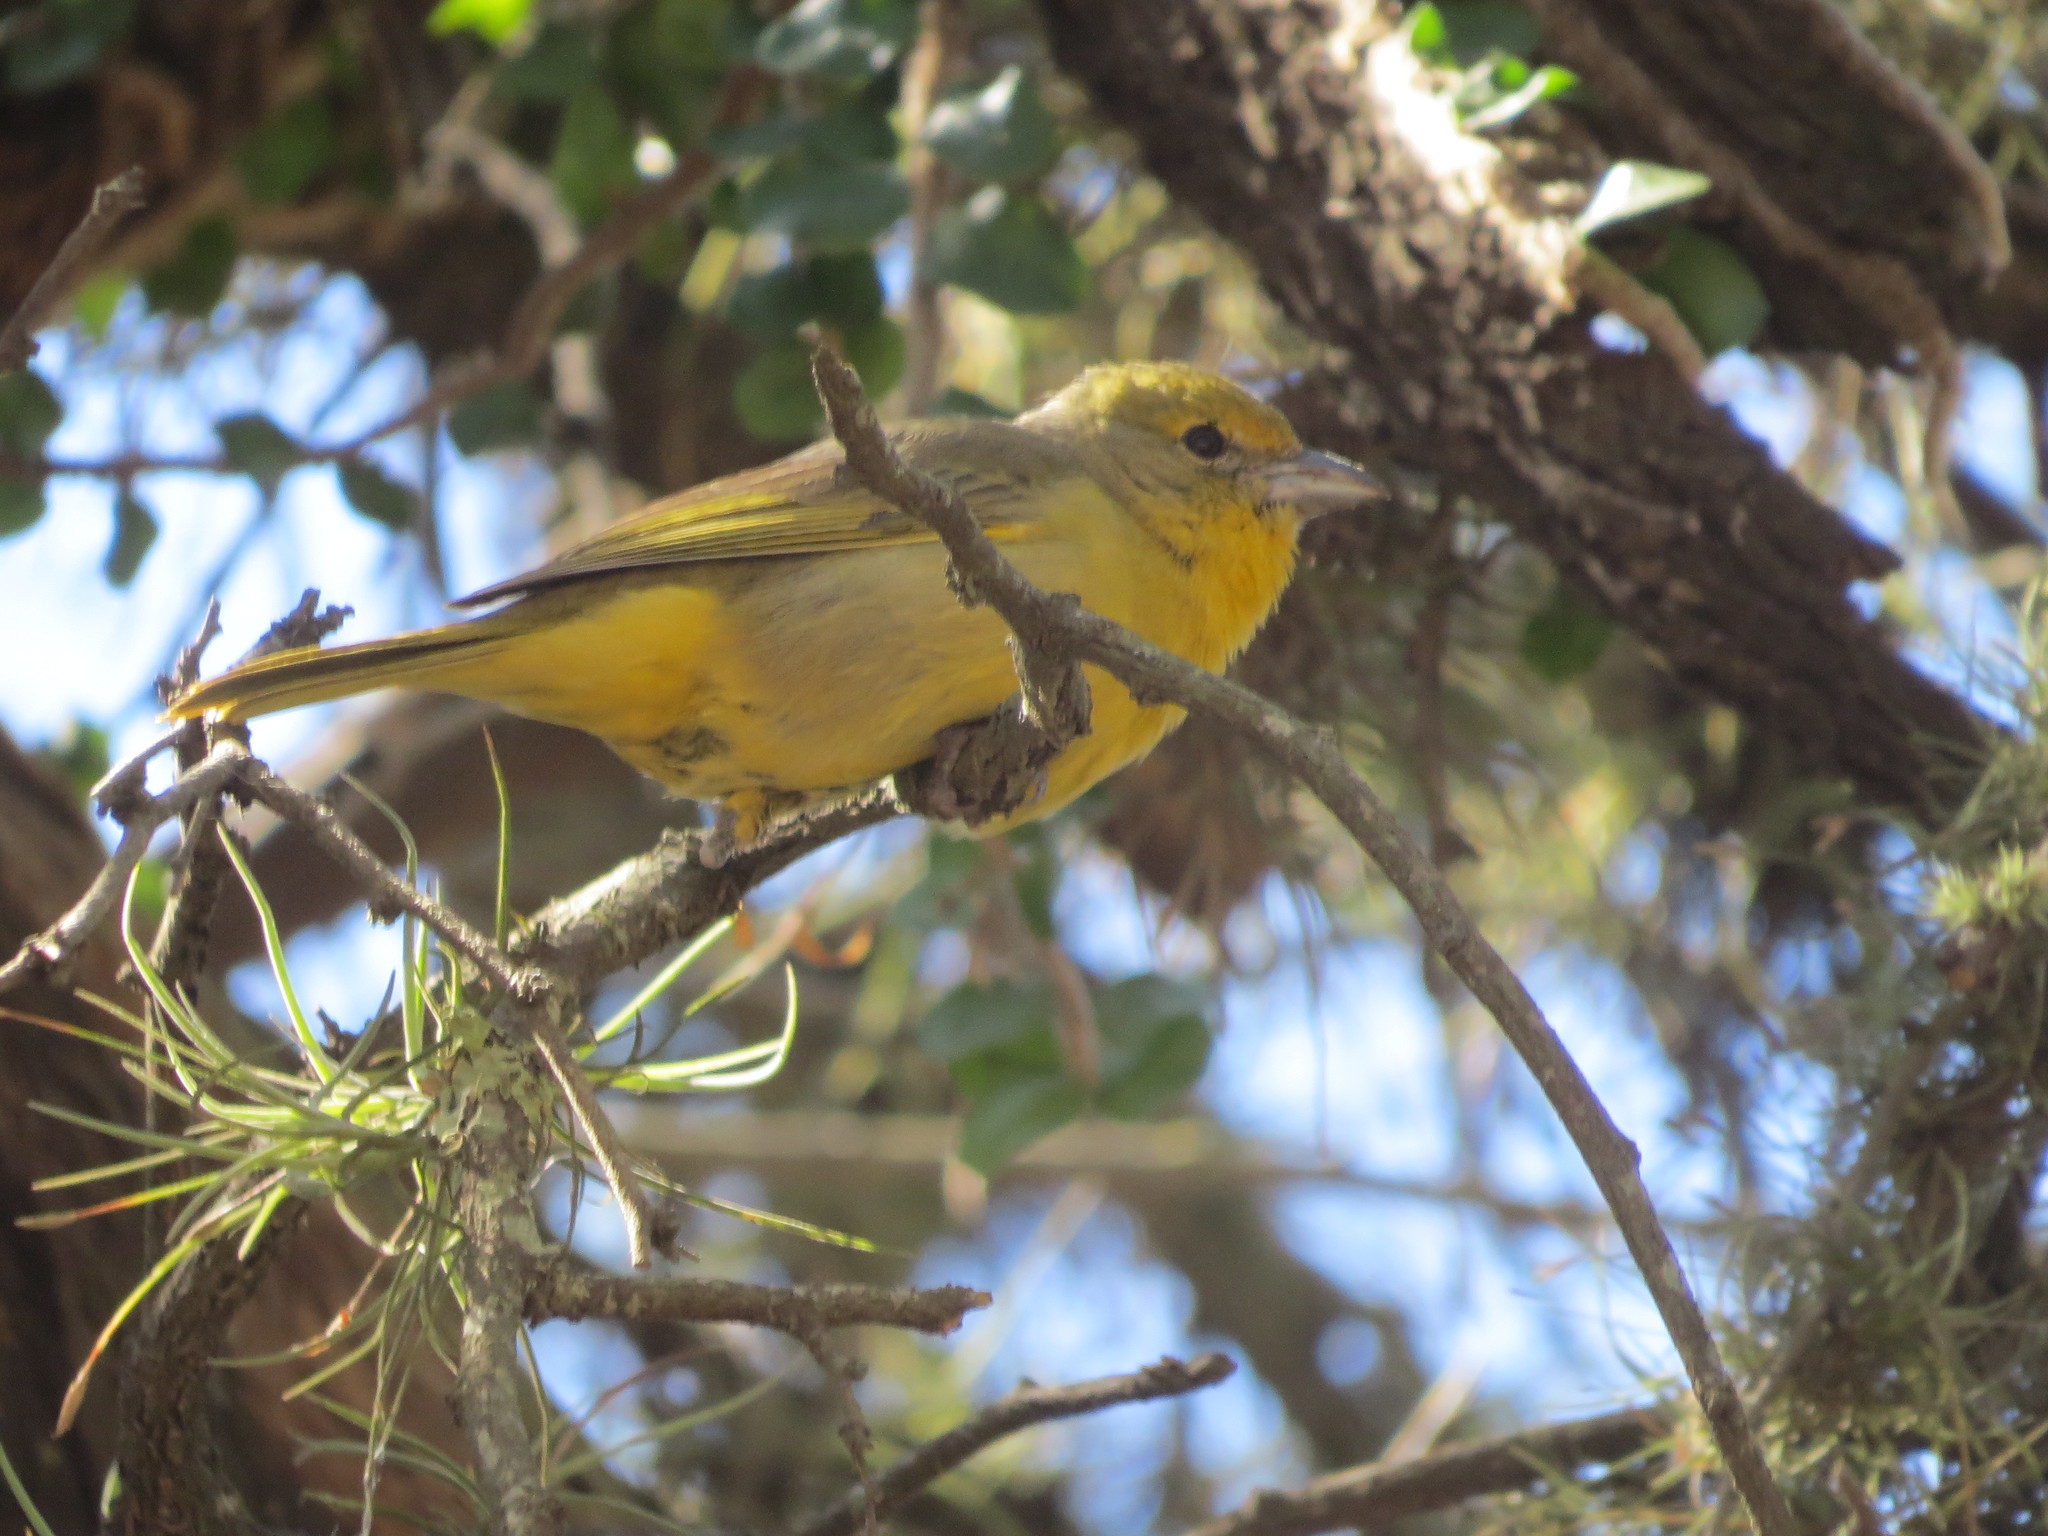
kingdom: Animalia
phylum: Chordata
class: Aves
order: Passeriformes
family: Cardinalidae
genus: Piranga
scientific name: Piranga flava
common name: Red tanager
